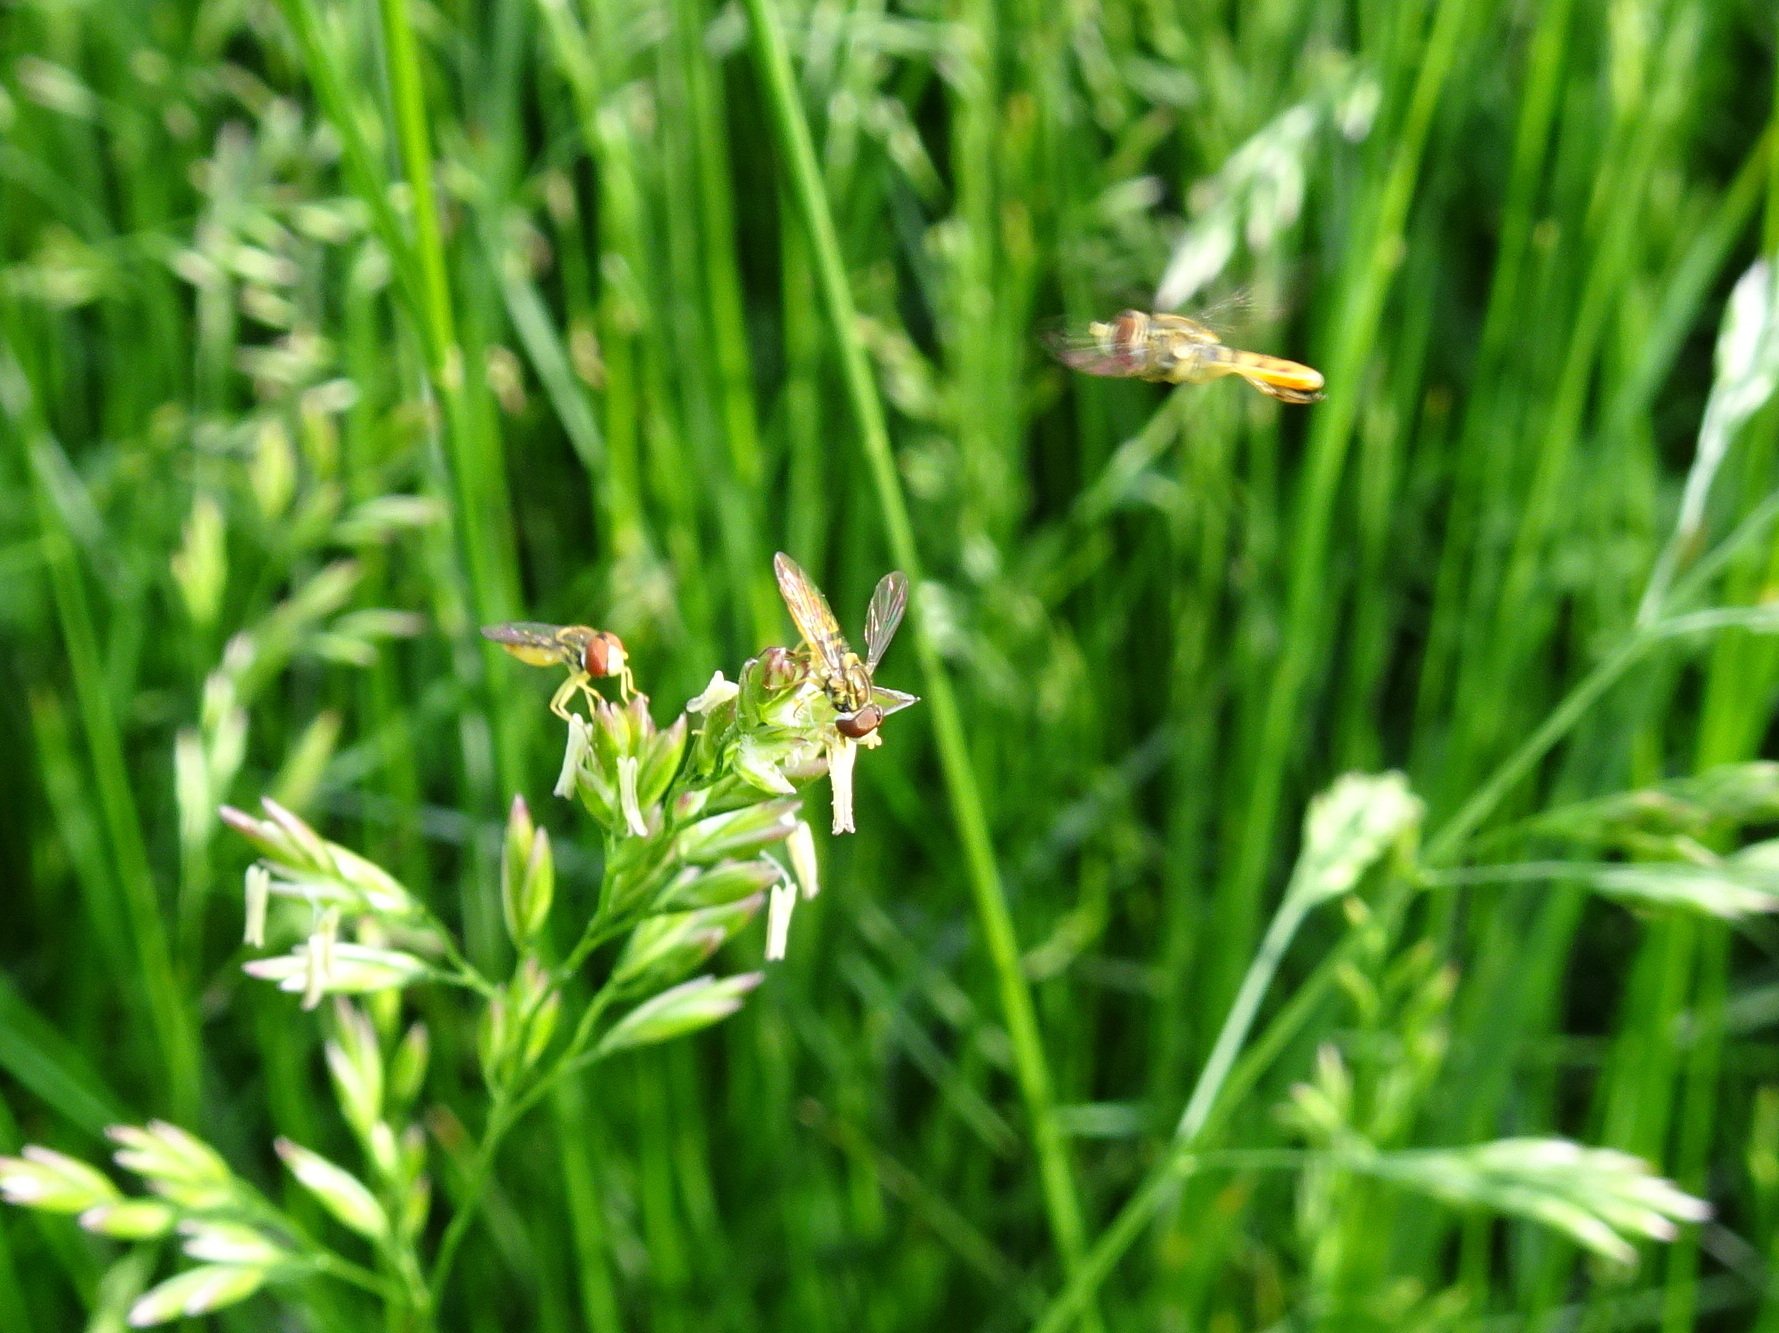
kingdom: Animalia
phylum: Arthropoda
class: Insecta
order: Diptera
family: Syrphidae
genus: Toxomerus
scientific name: Toxomerus marginatus
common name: Syrphid fly
